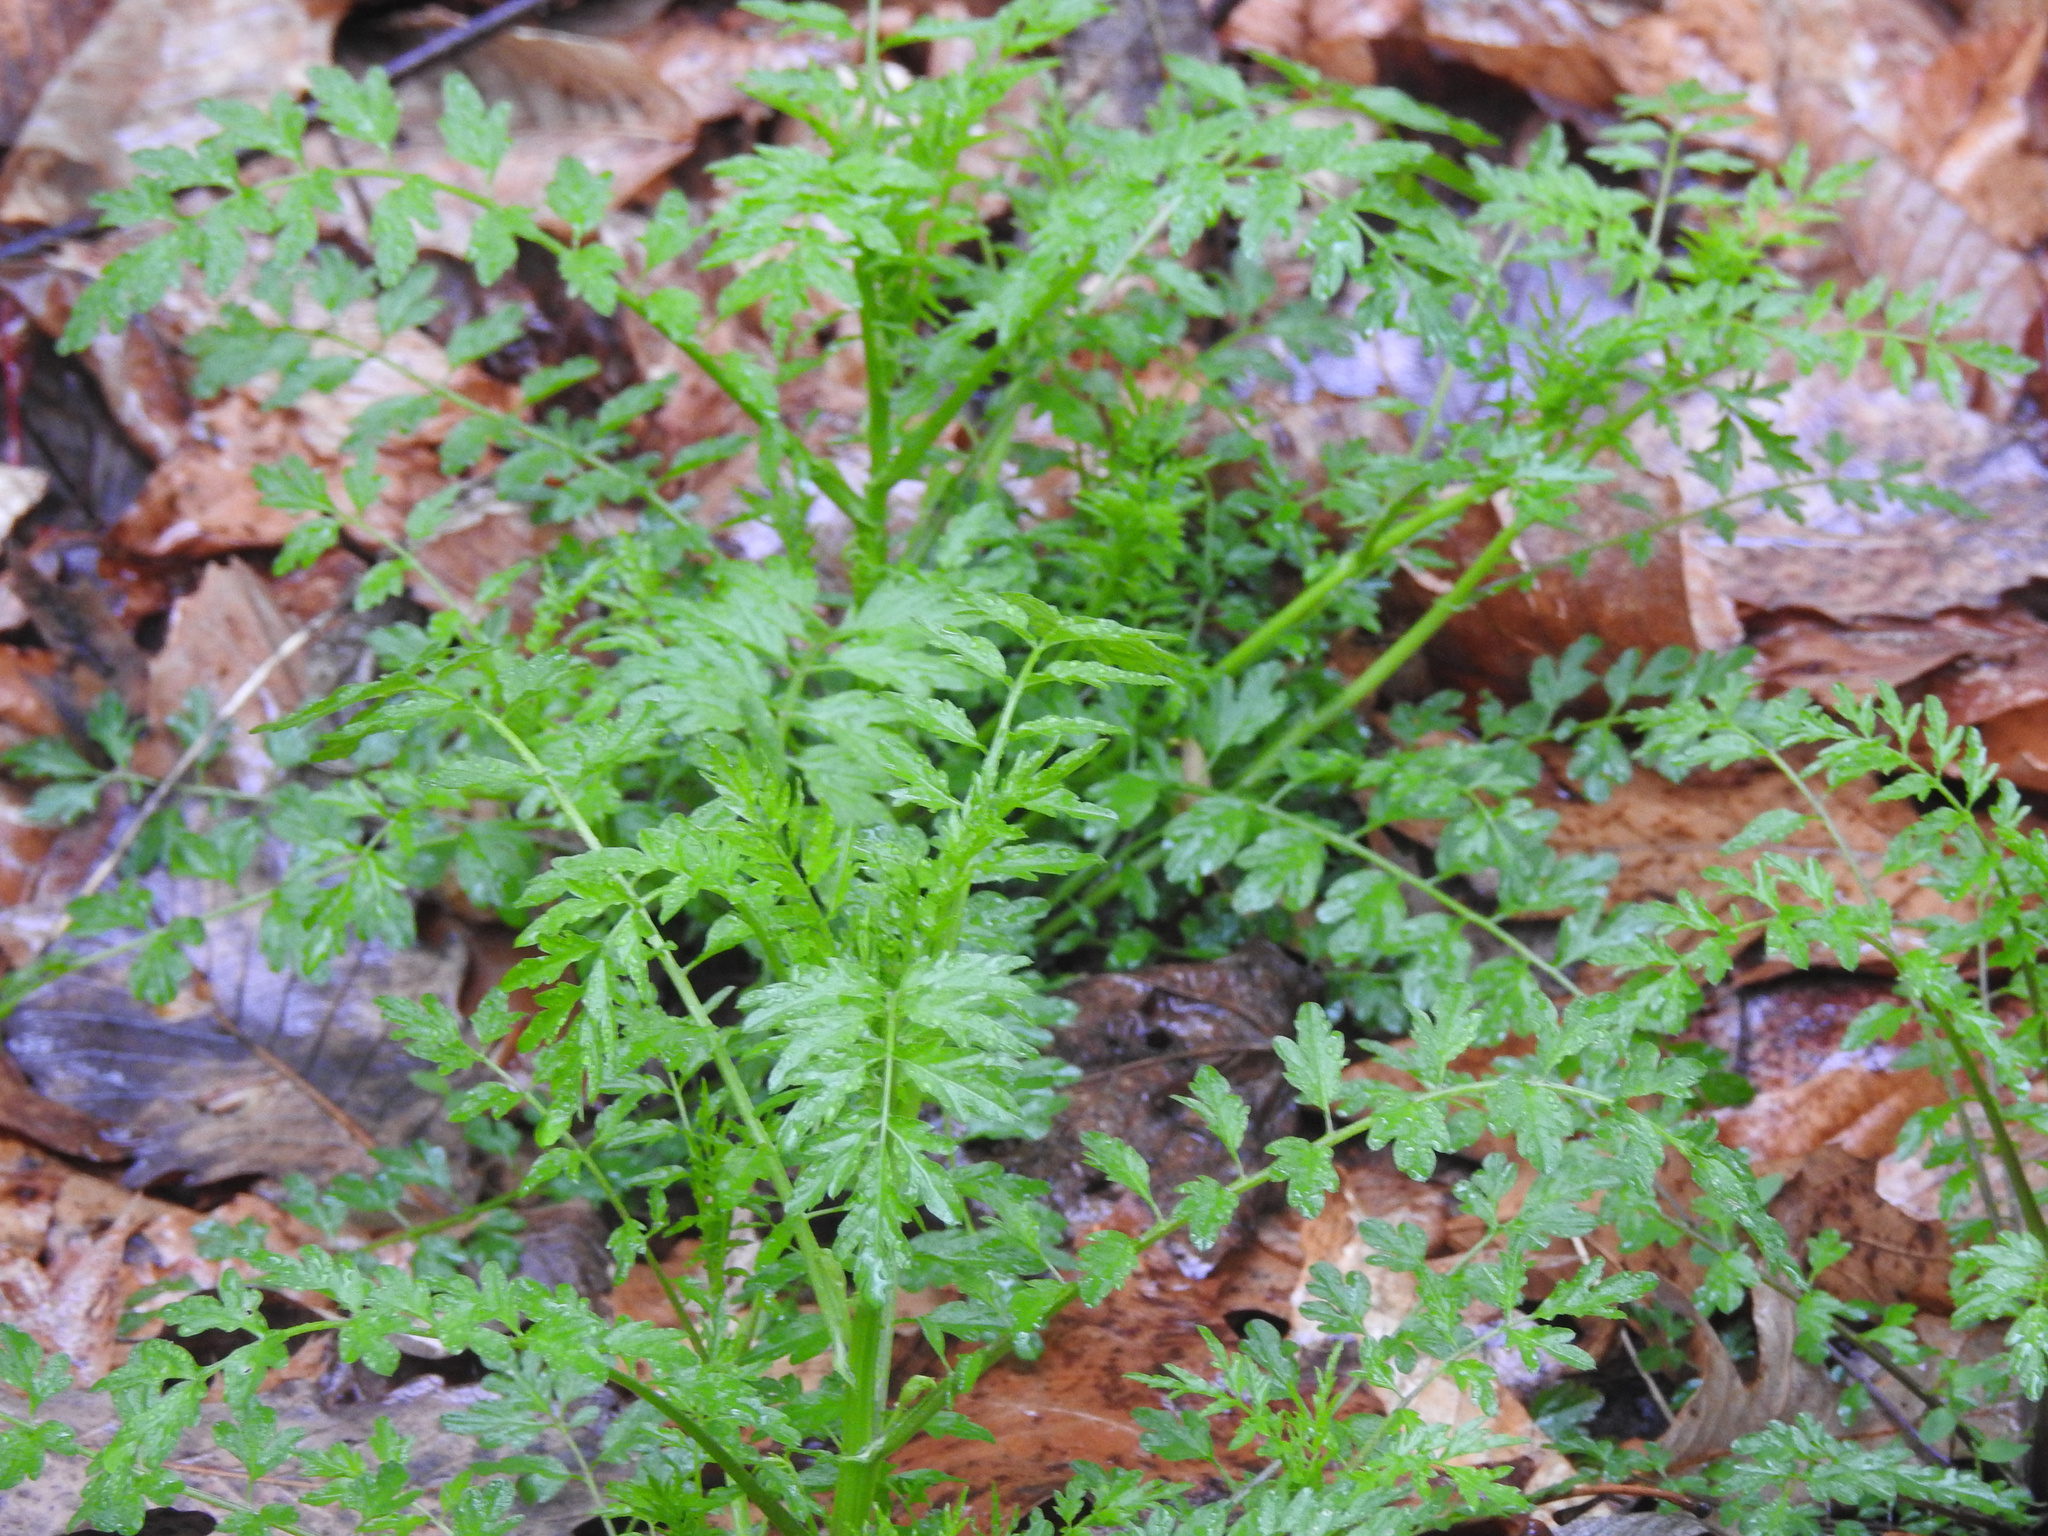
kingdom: Plantae
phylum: Tracheophyta
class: Magnoliopsida
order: Brassicales
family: Brassicaceae
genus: Cardamine
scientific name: Cardamine impatiens
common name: Narrow-leaved bitter-cress
